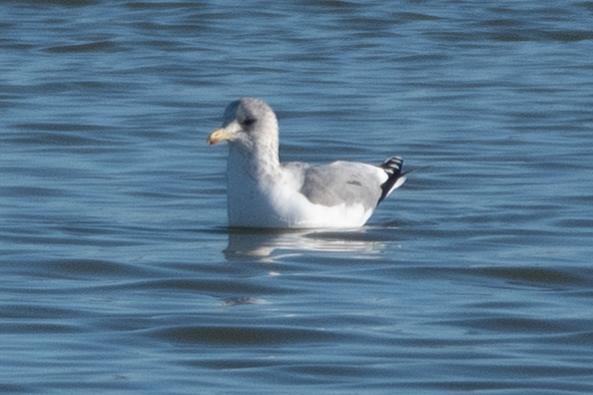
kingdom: Animalia
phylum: Chordata
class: Aves
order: Charadriiformes
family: Laridae
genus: Larus
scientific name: Larus californicus
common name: California gull
